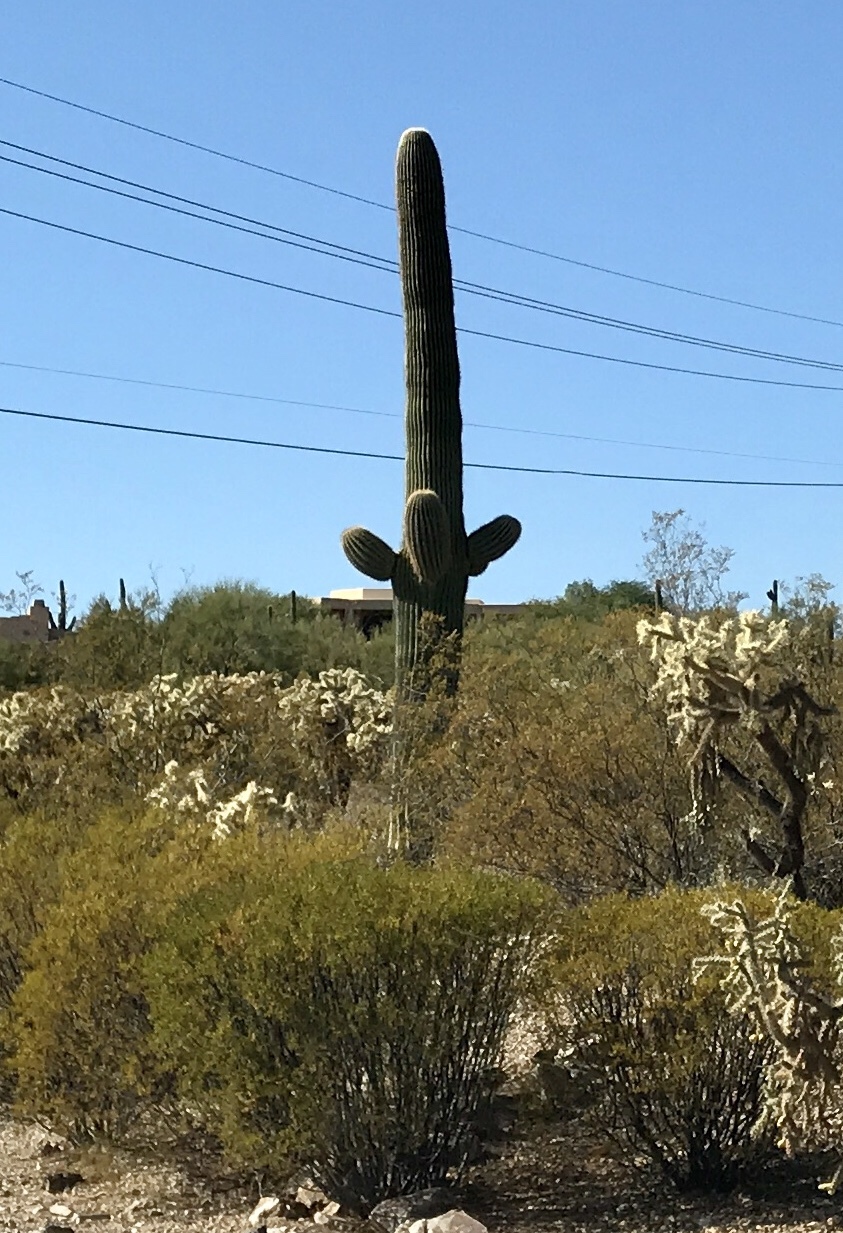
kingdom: Plantae
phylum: Tracheophyta
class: Magnoliopsida
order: Caryophyllales
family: Cactaceae
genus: Carnegiea
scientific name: Carnegiea gigantea
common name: Saguaro
